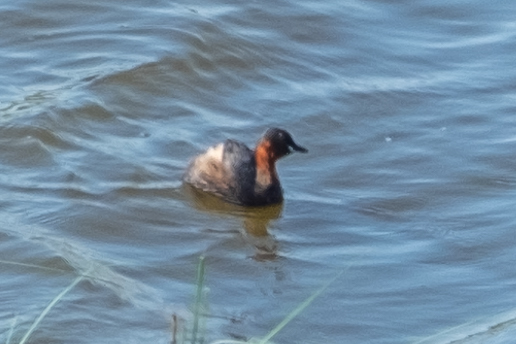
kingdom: Animalia
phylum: Chordata
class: Aves
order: Podicipediformes
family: Podicipedidae
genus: Tachybaptus
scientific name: Tachybaptus ruficollis
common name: Little grebe
